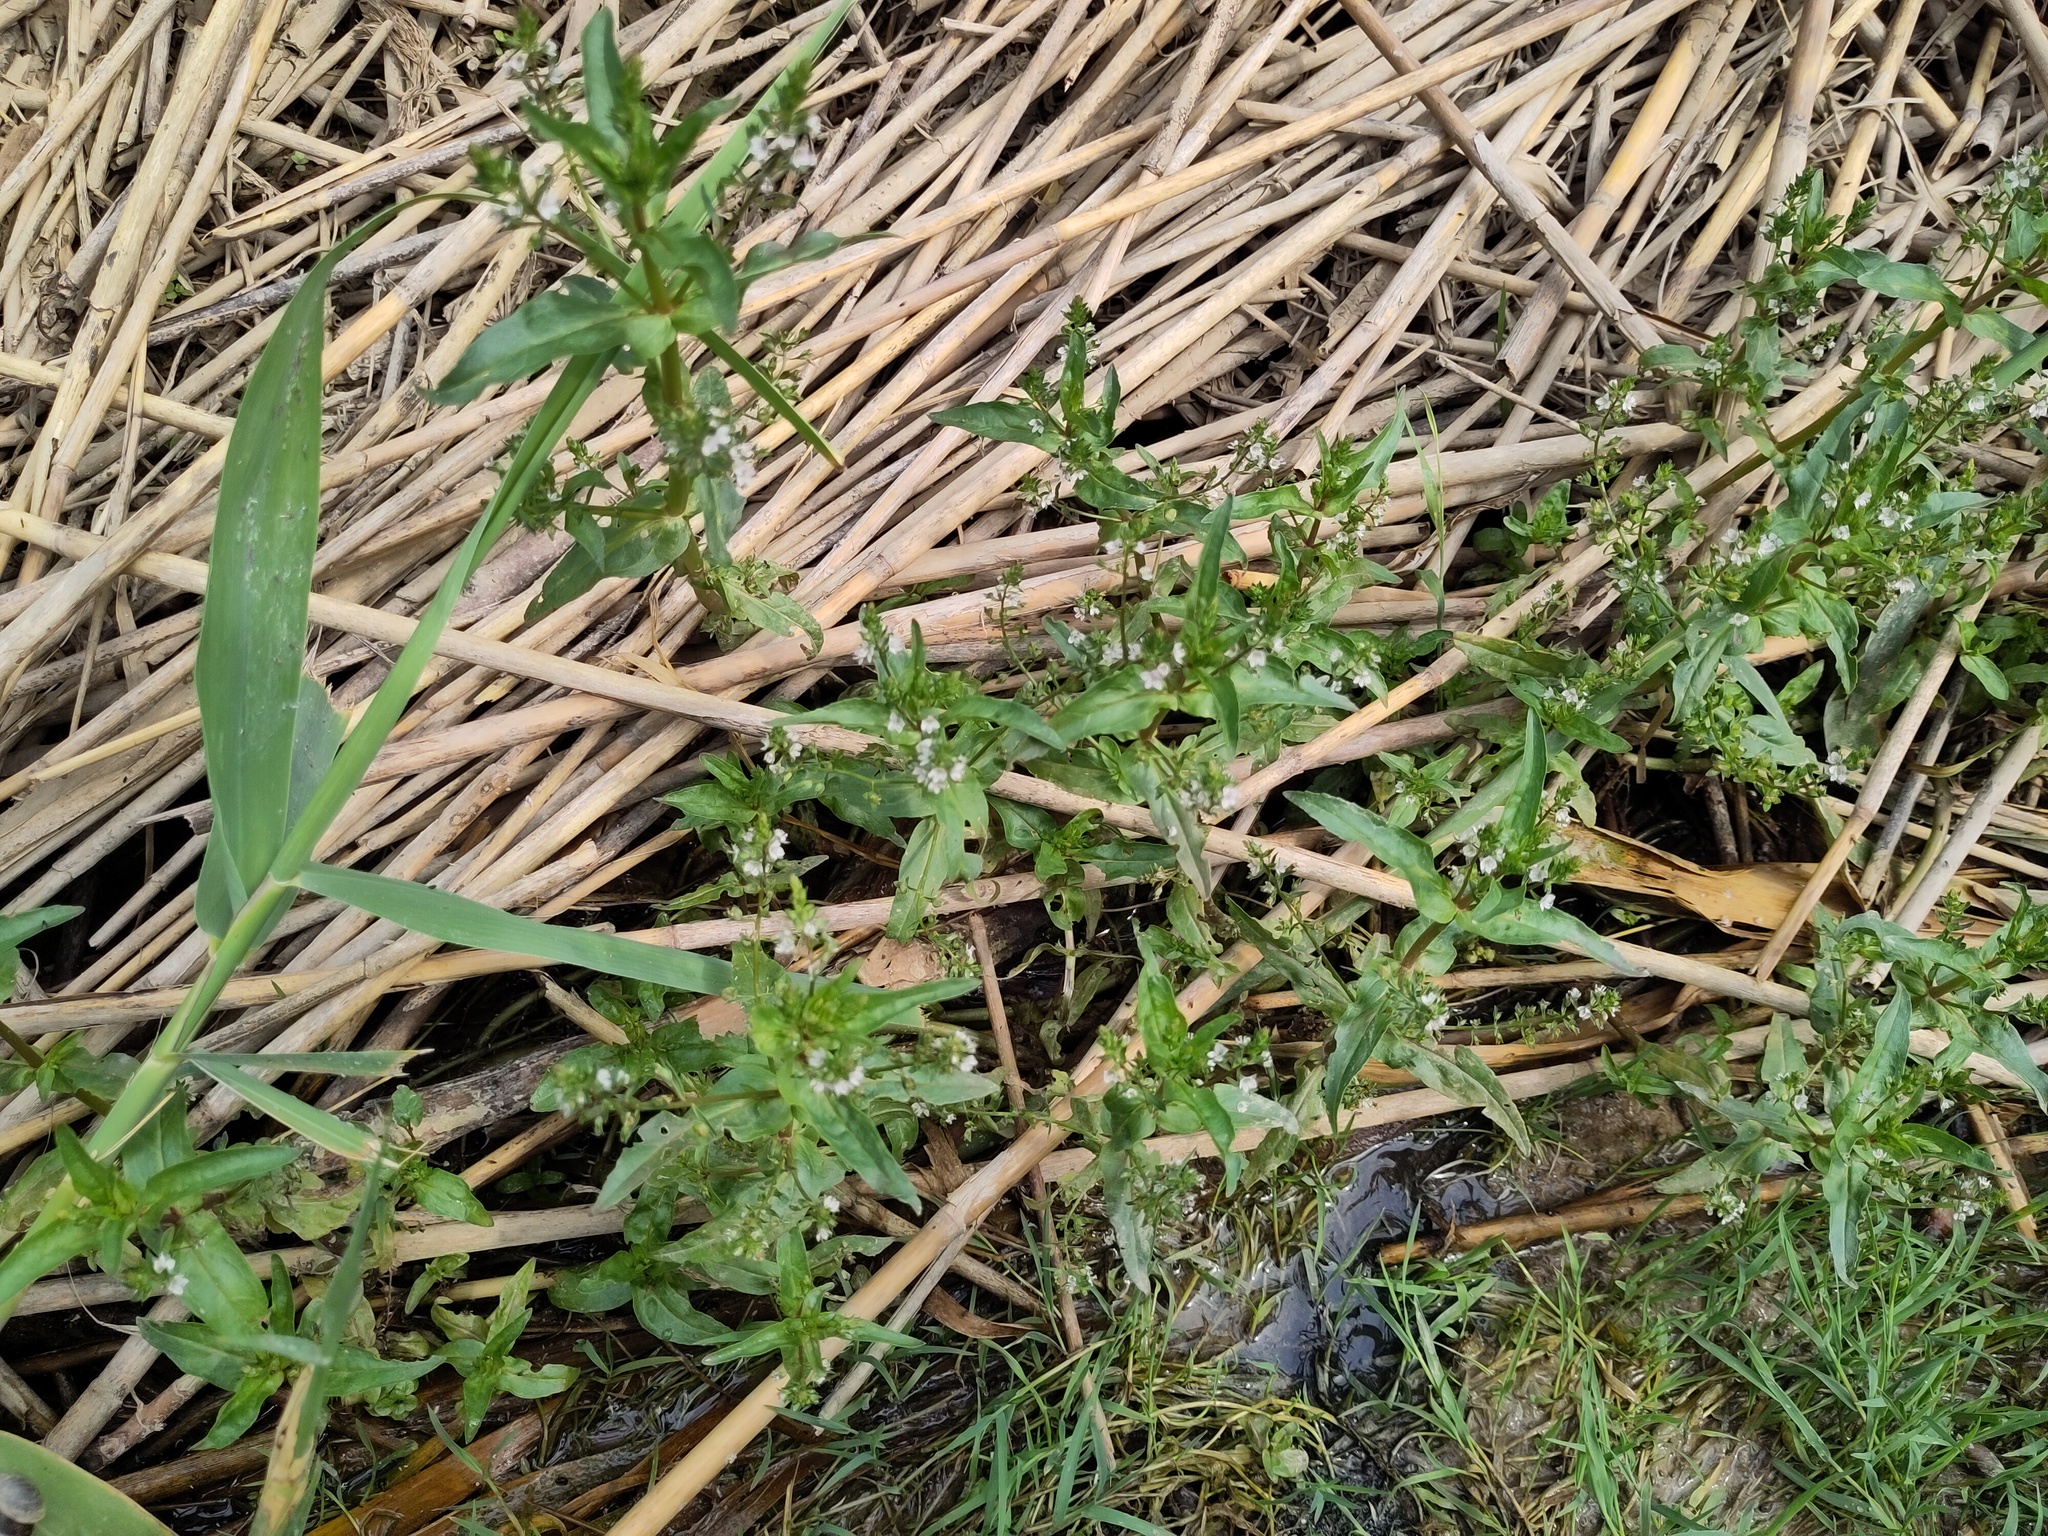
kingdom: Plantae
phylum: Tracheophyta
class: Magnoliopsida
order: Lamiales
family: Plantaginaceae
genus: Veronica
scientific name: Veronica catenata
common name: Pink water-speedwell
